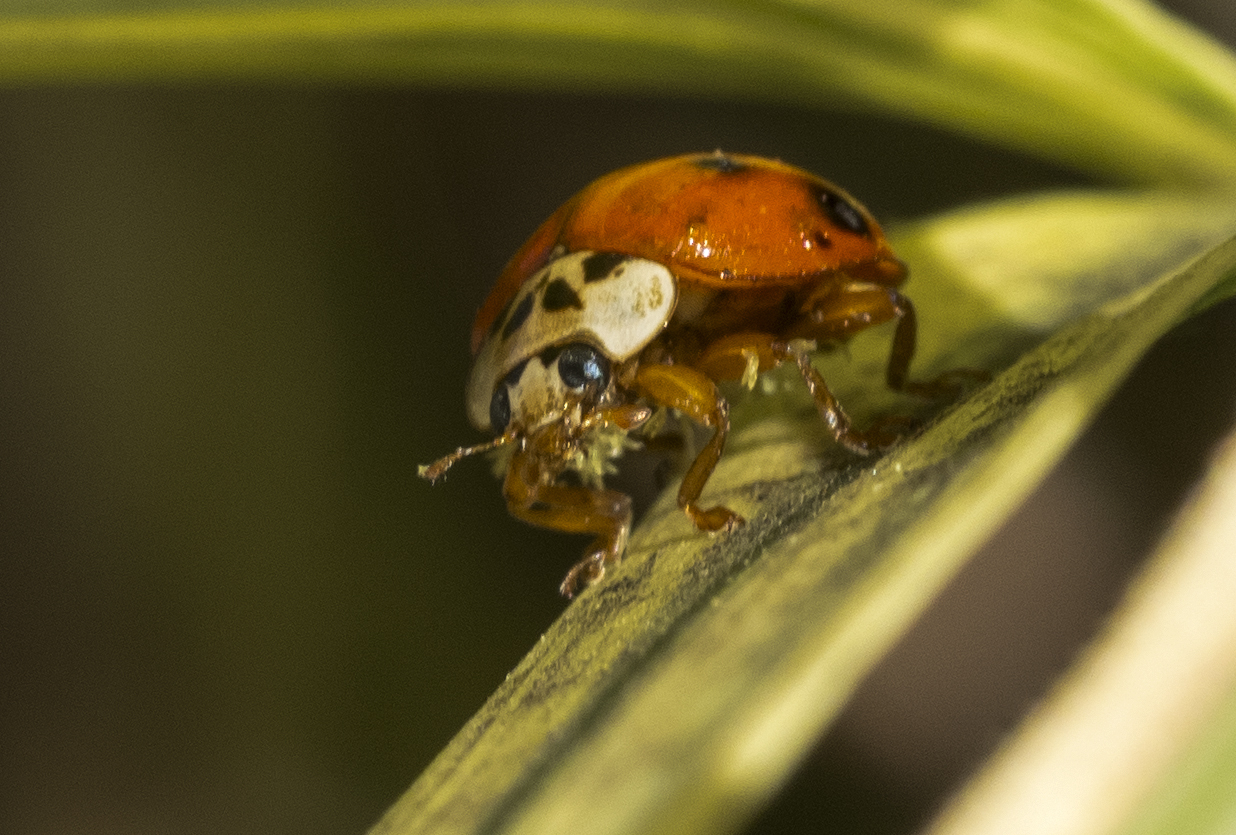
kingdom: Animalia
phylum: Arthropoda
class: Insecta
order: Coleoptera
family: Coccinellidae
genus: Harmonia
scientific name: Harmonia axyridis
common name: Harlequin ladybird
